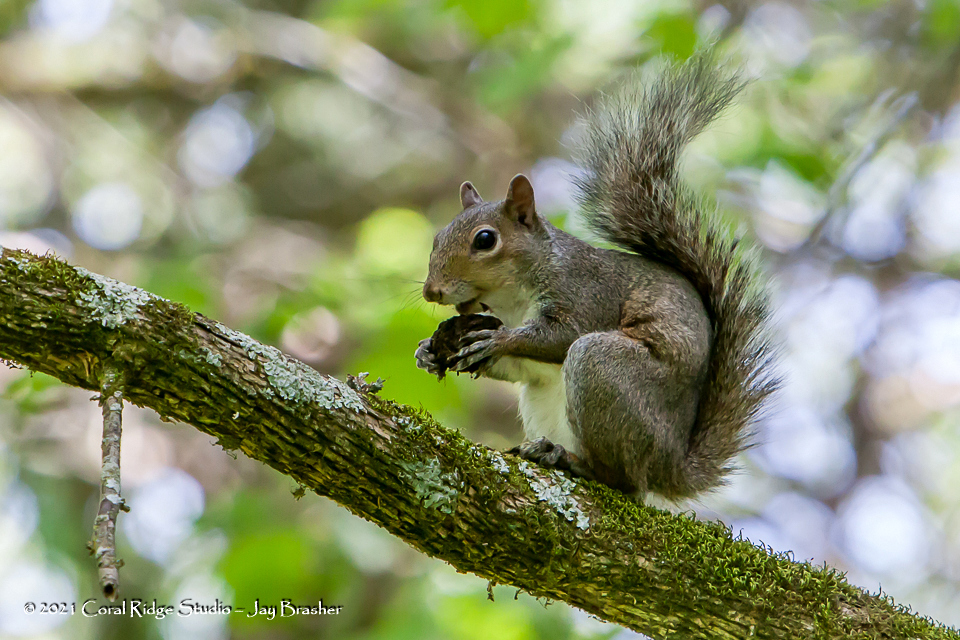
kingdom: Animalia
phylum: Chordata
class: Mammalia
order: Rodentia
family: Sciuridae
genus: Sciurus
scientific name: Sciurus carolinensis
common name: Eastern gray squirrel
